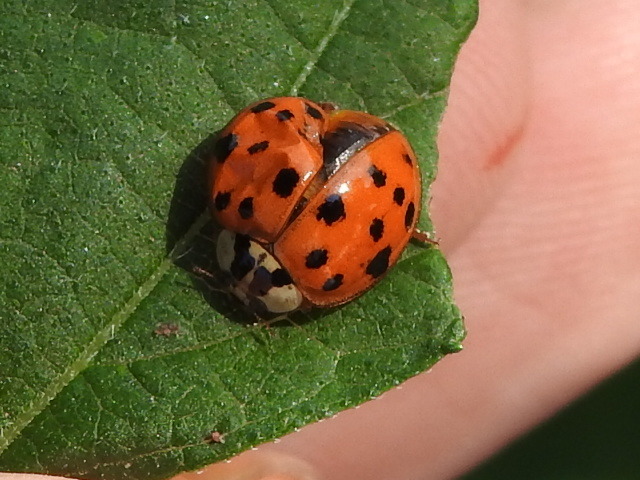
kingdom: Animalia
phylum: Arthropoda
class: Insecta
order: Coleoptera
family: Coccinellidae
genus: Harmonia
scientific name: Harmonia axyridis
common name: Harlequin ladybird
